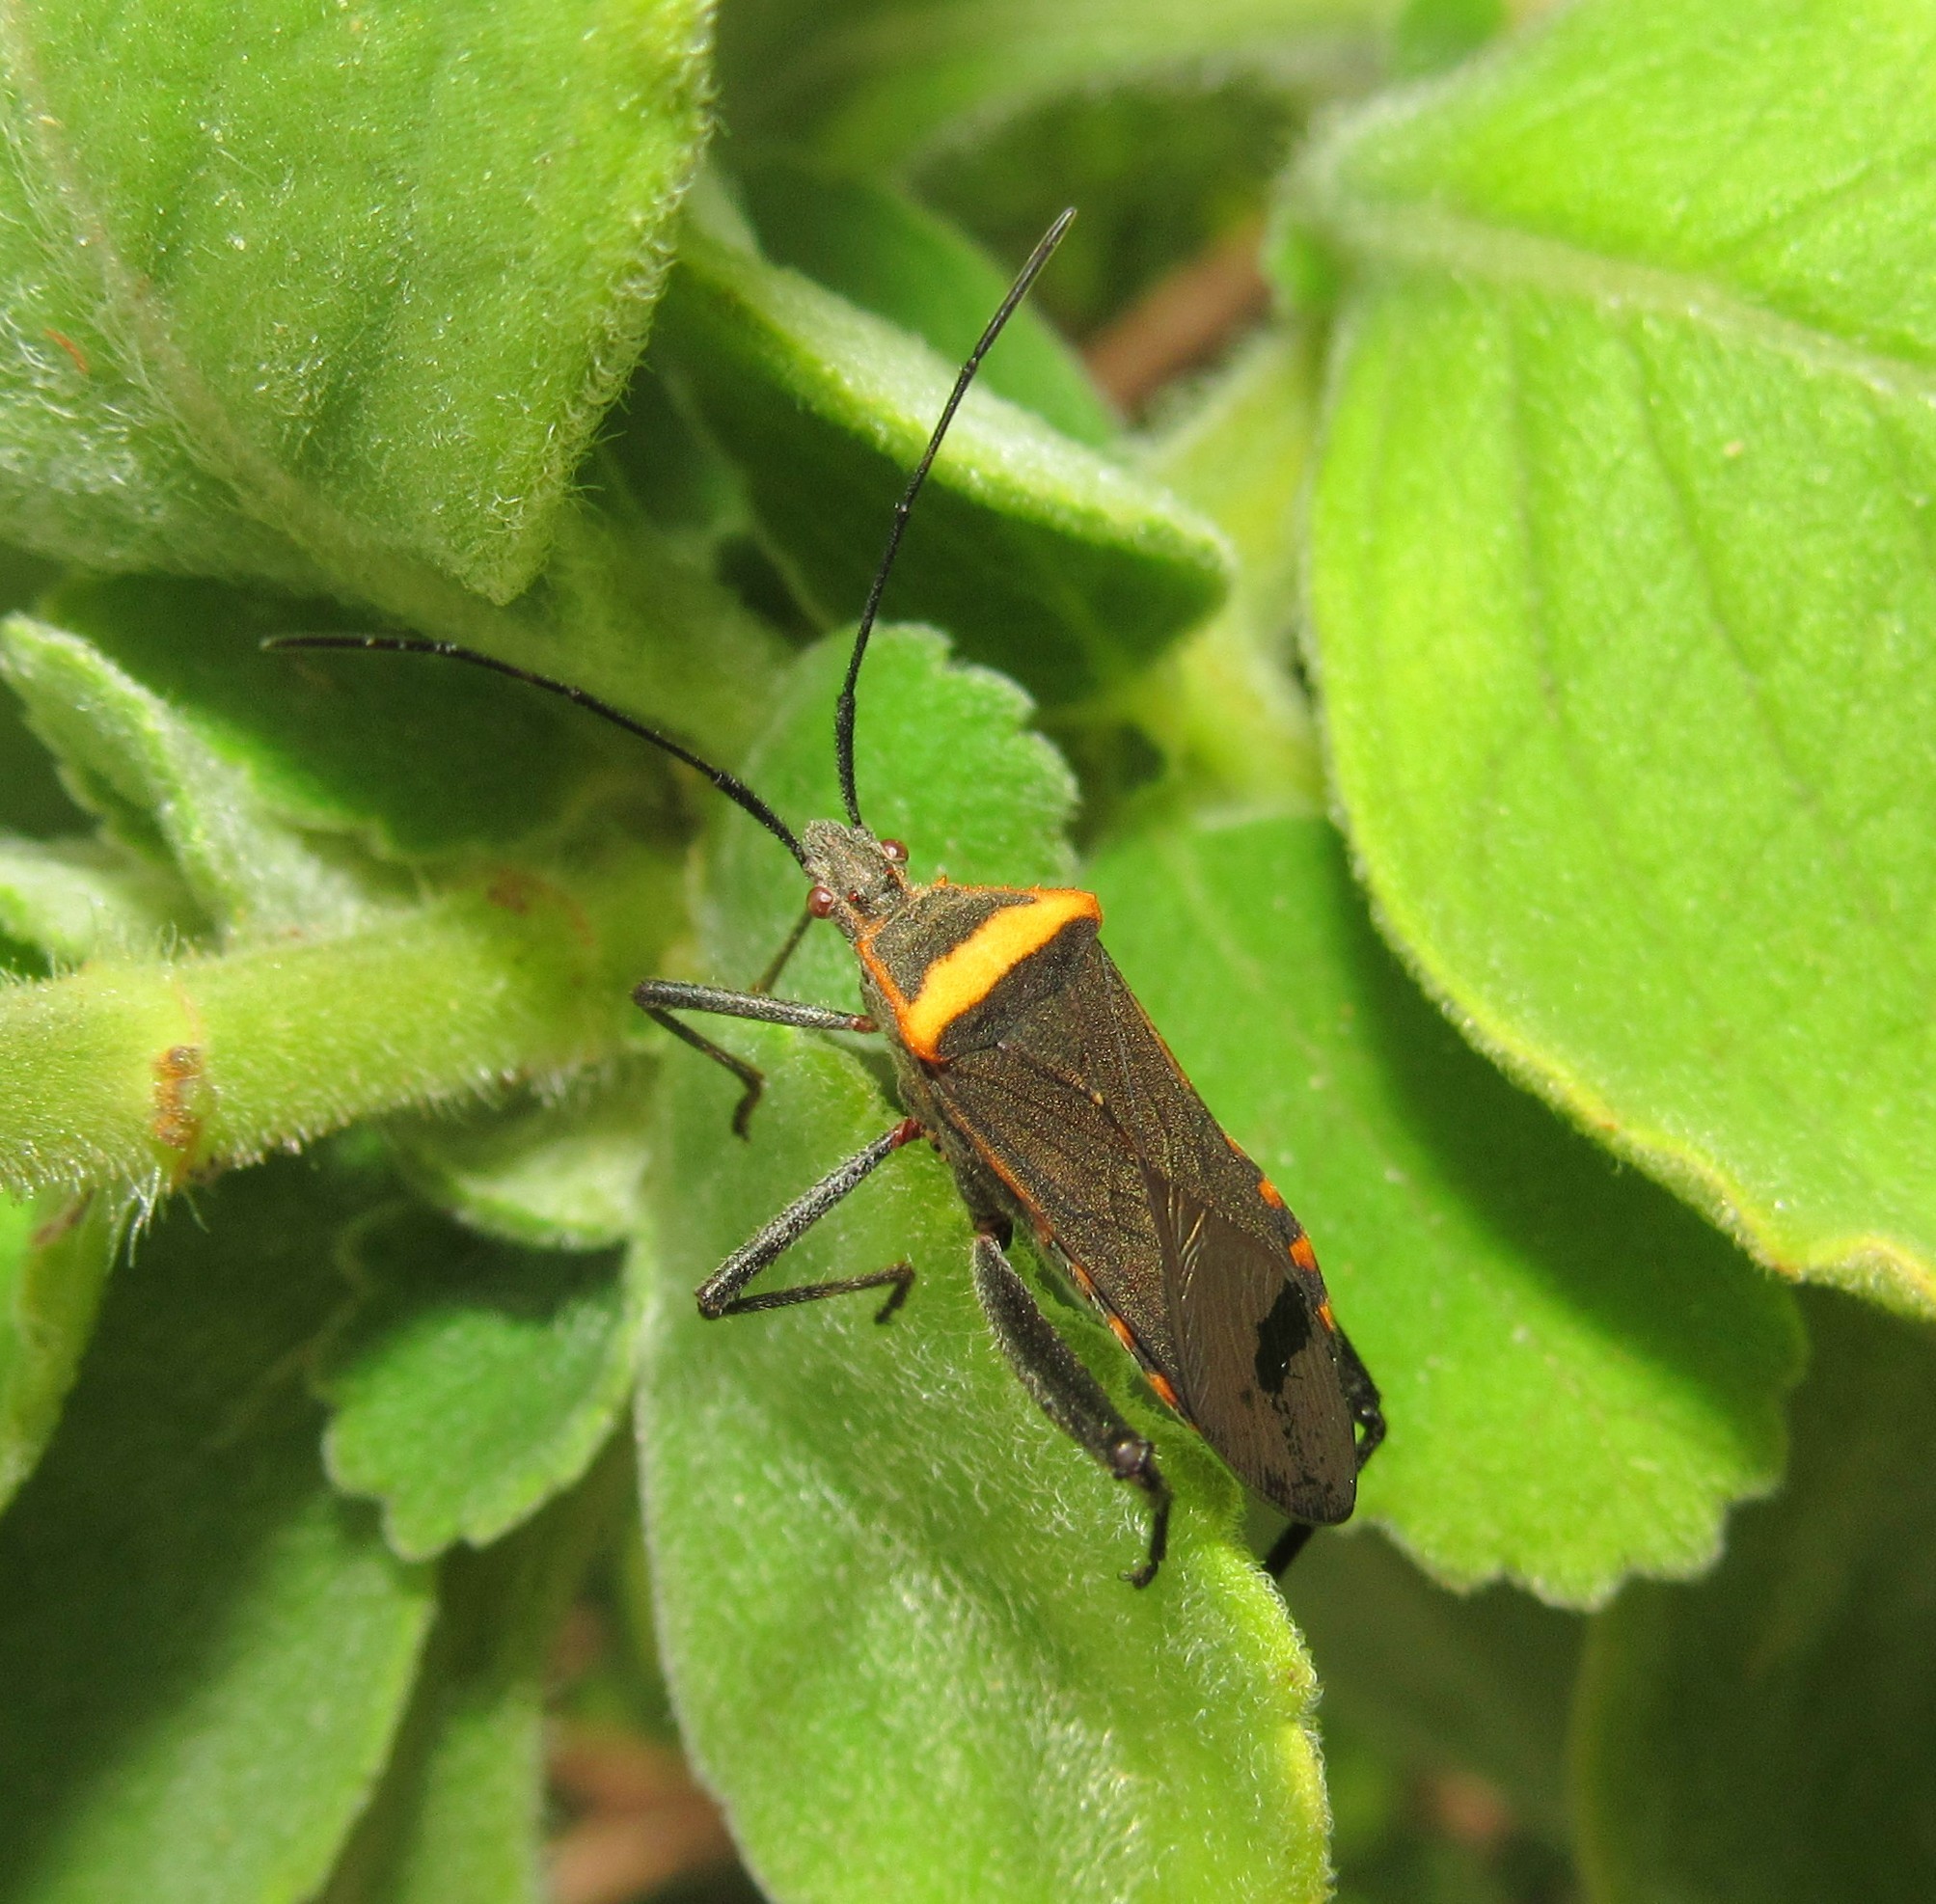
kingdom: Animalia
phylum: Arthropoda
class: Insecta
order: Hemiptera
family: Coreidae
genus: Phthiacnemia
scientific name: Phthiacnemia picta
